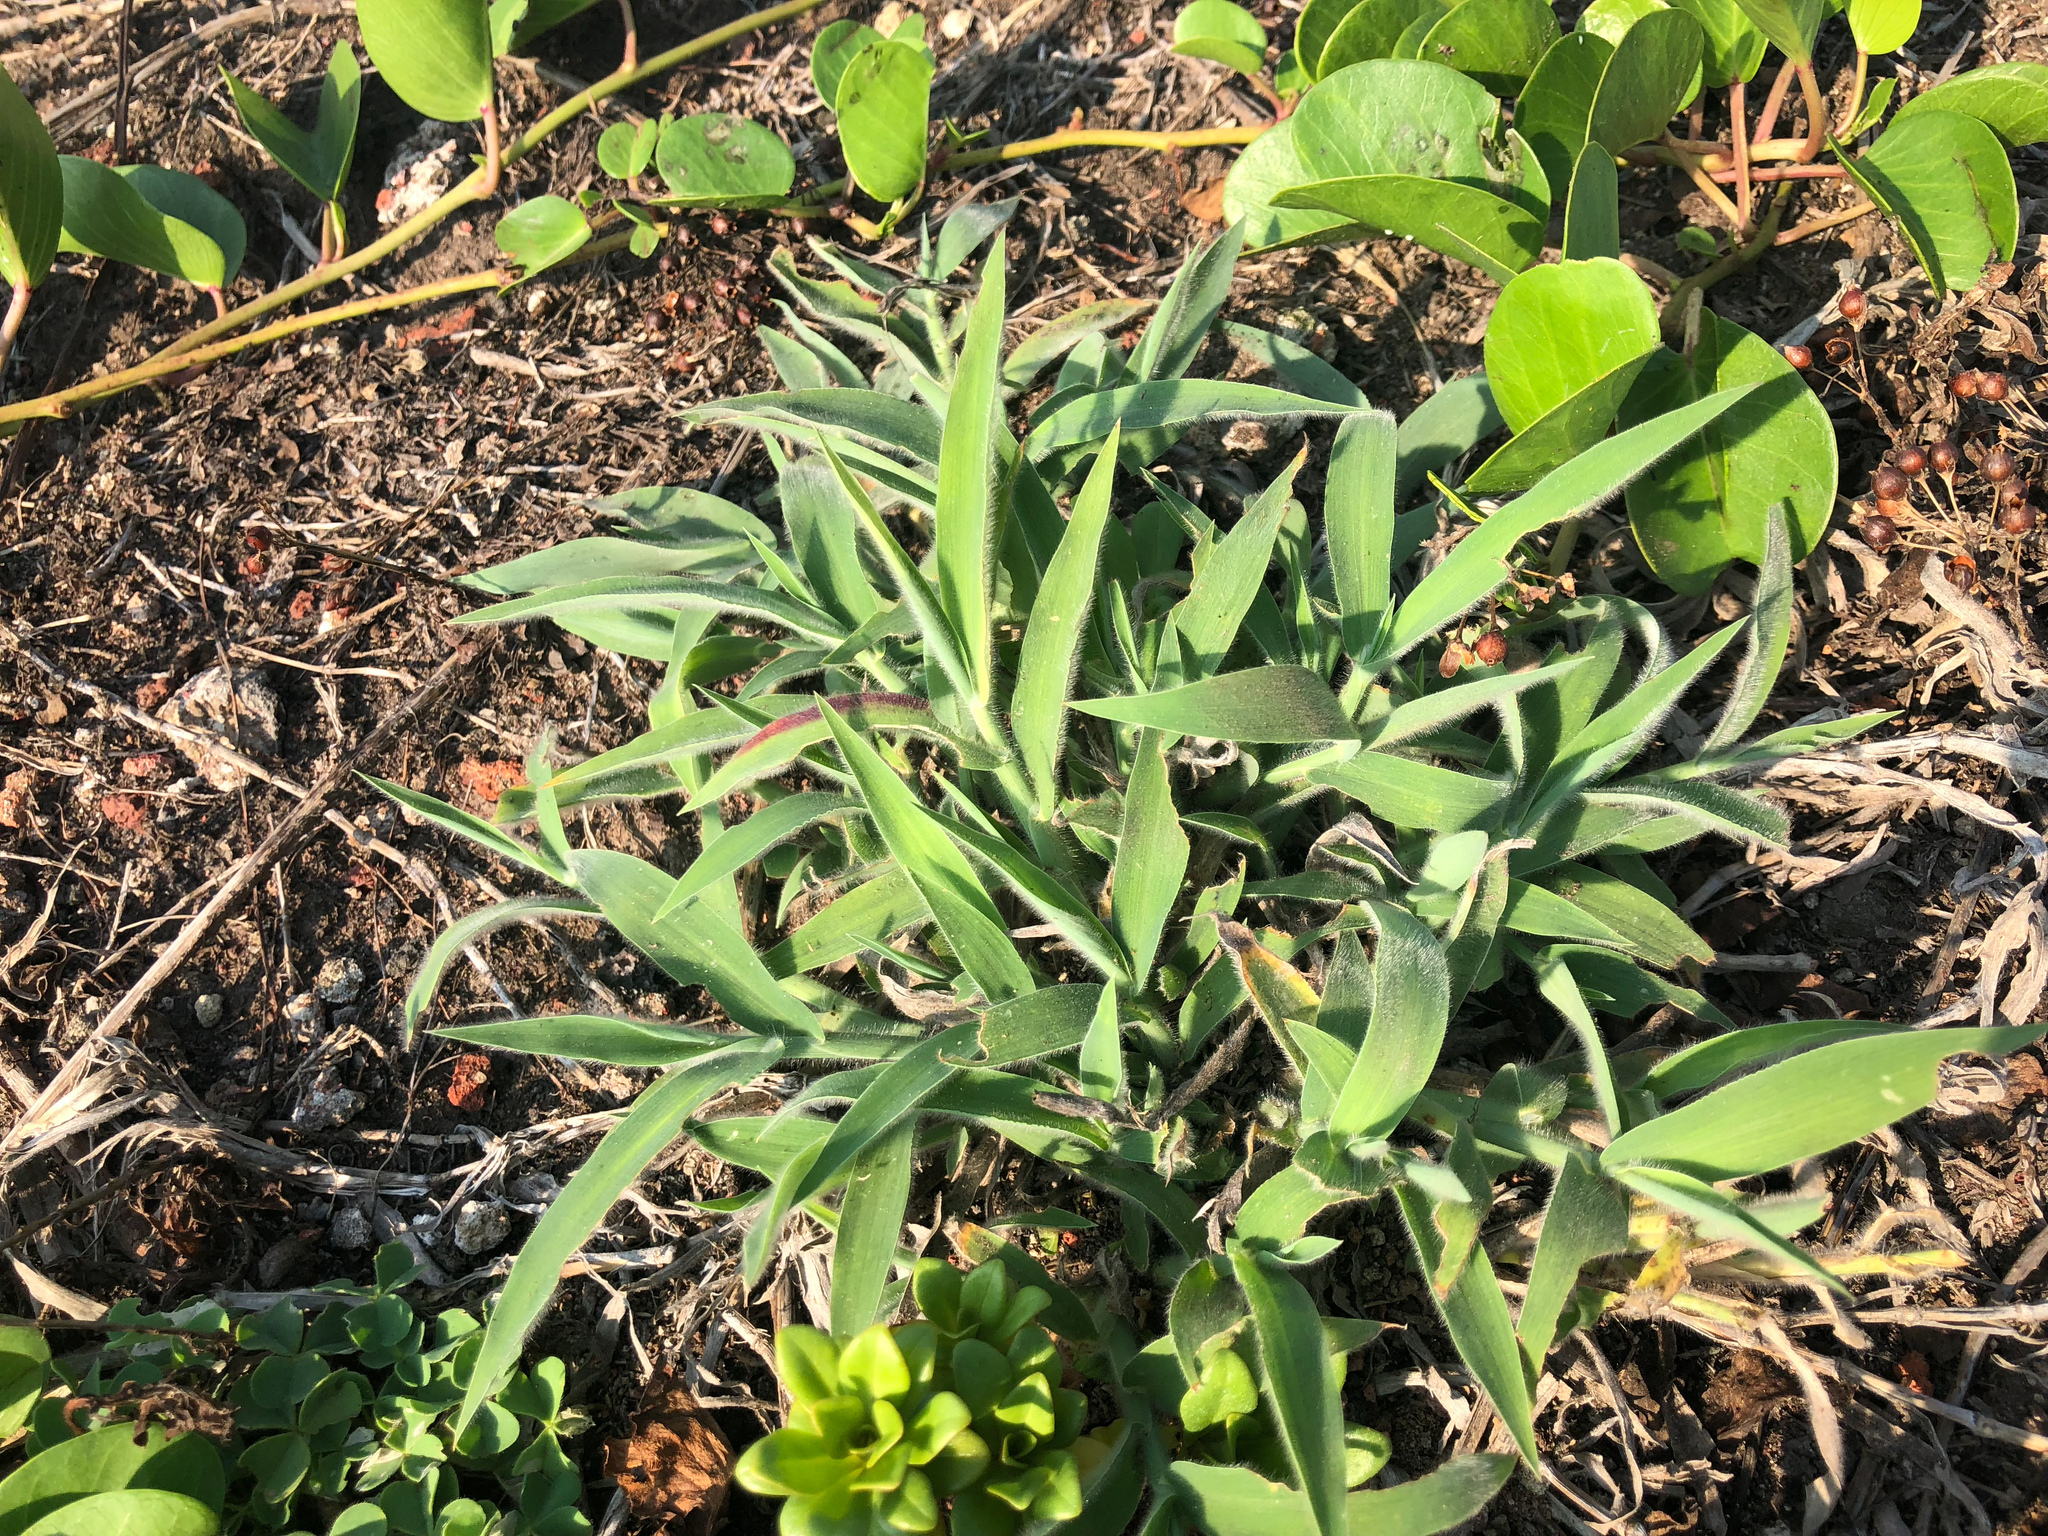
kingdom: Plantae
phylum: Tracheophyta
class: Liliopsida
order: Poales
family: Poaceae
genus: Digitaria
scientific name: Digitaria sericea
